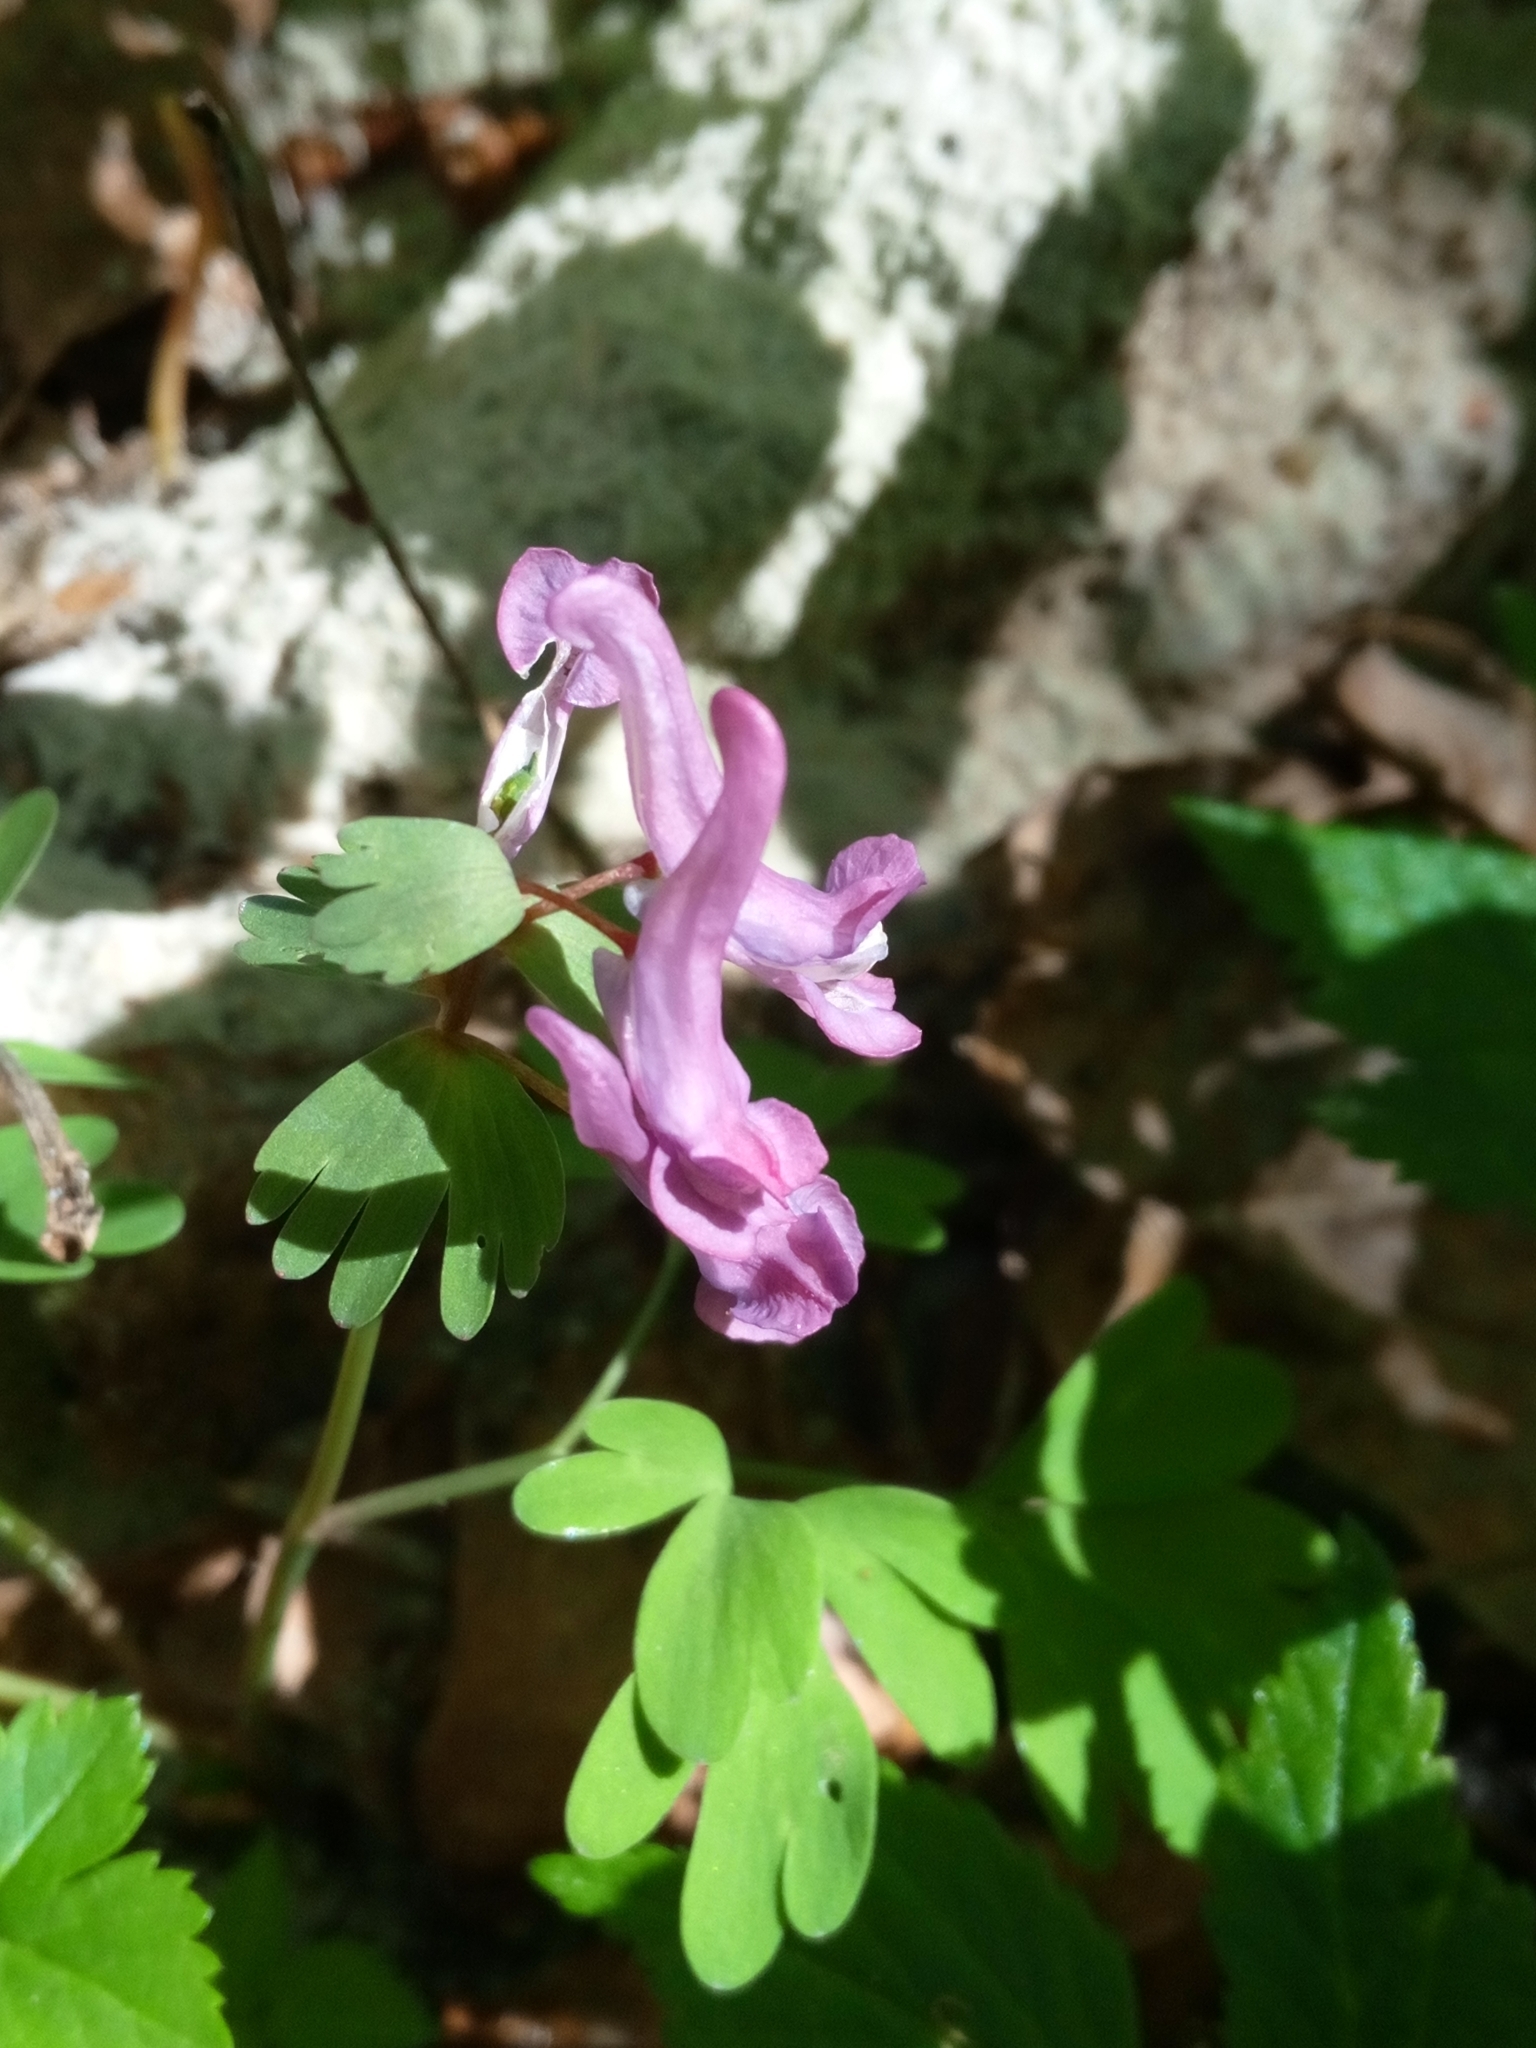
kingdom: Plantae
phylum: Tracheophyta
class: Magnoliopsida
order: Ranunculales
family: Papaveraceae
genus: Corydalis
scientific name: Corydalis solida
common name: Bird-in-a-bush
